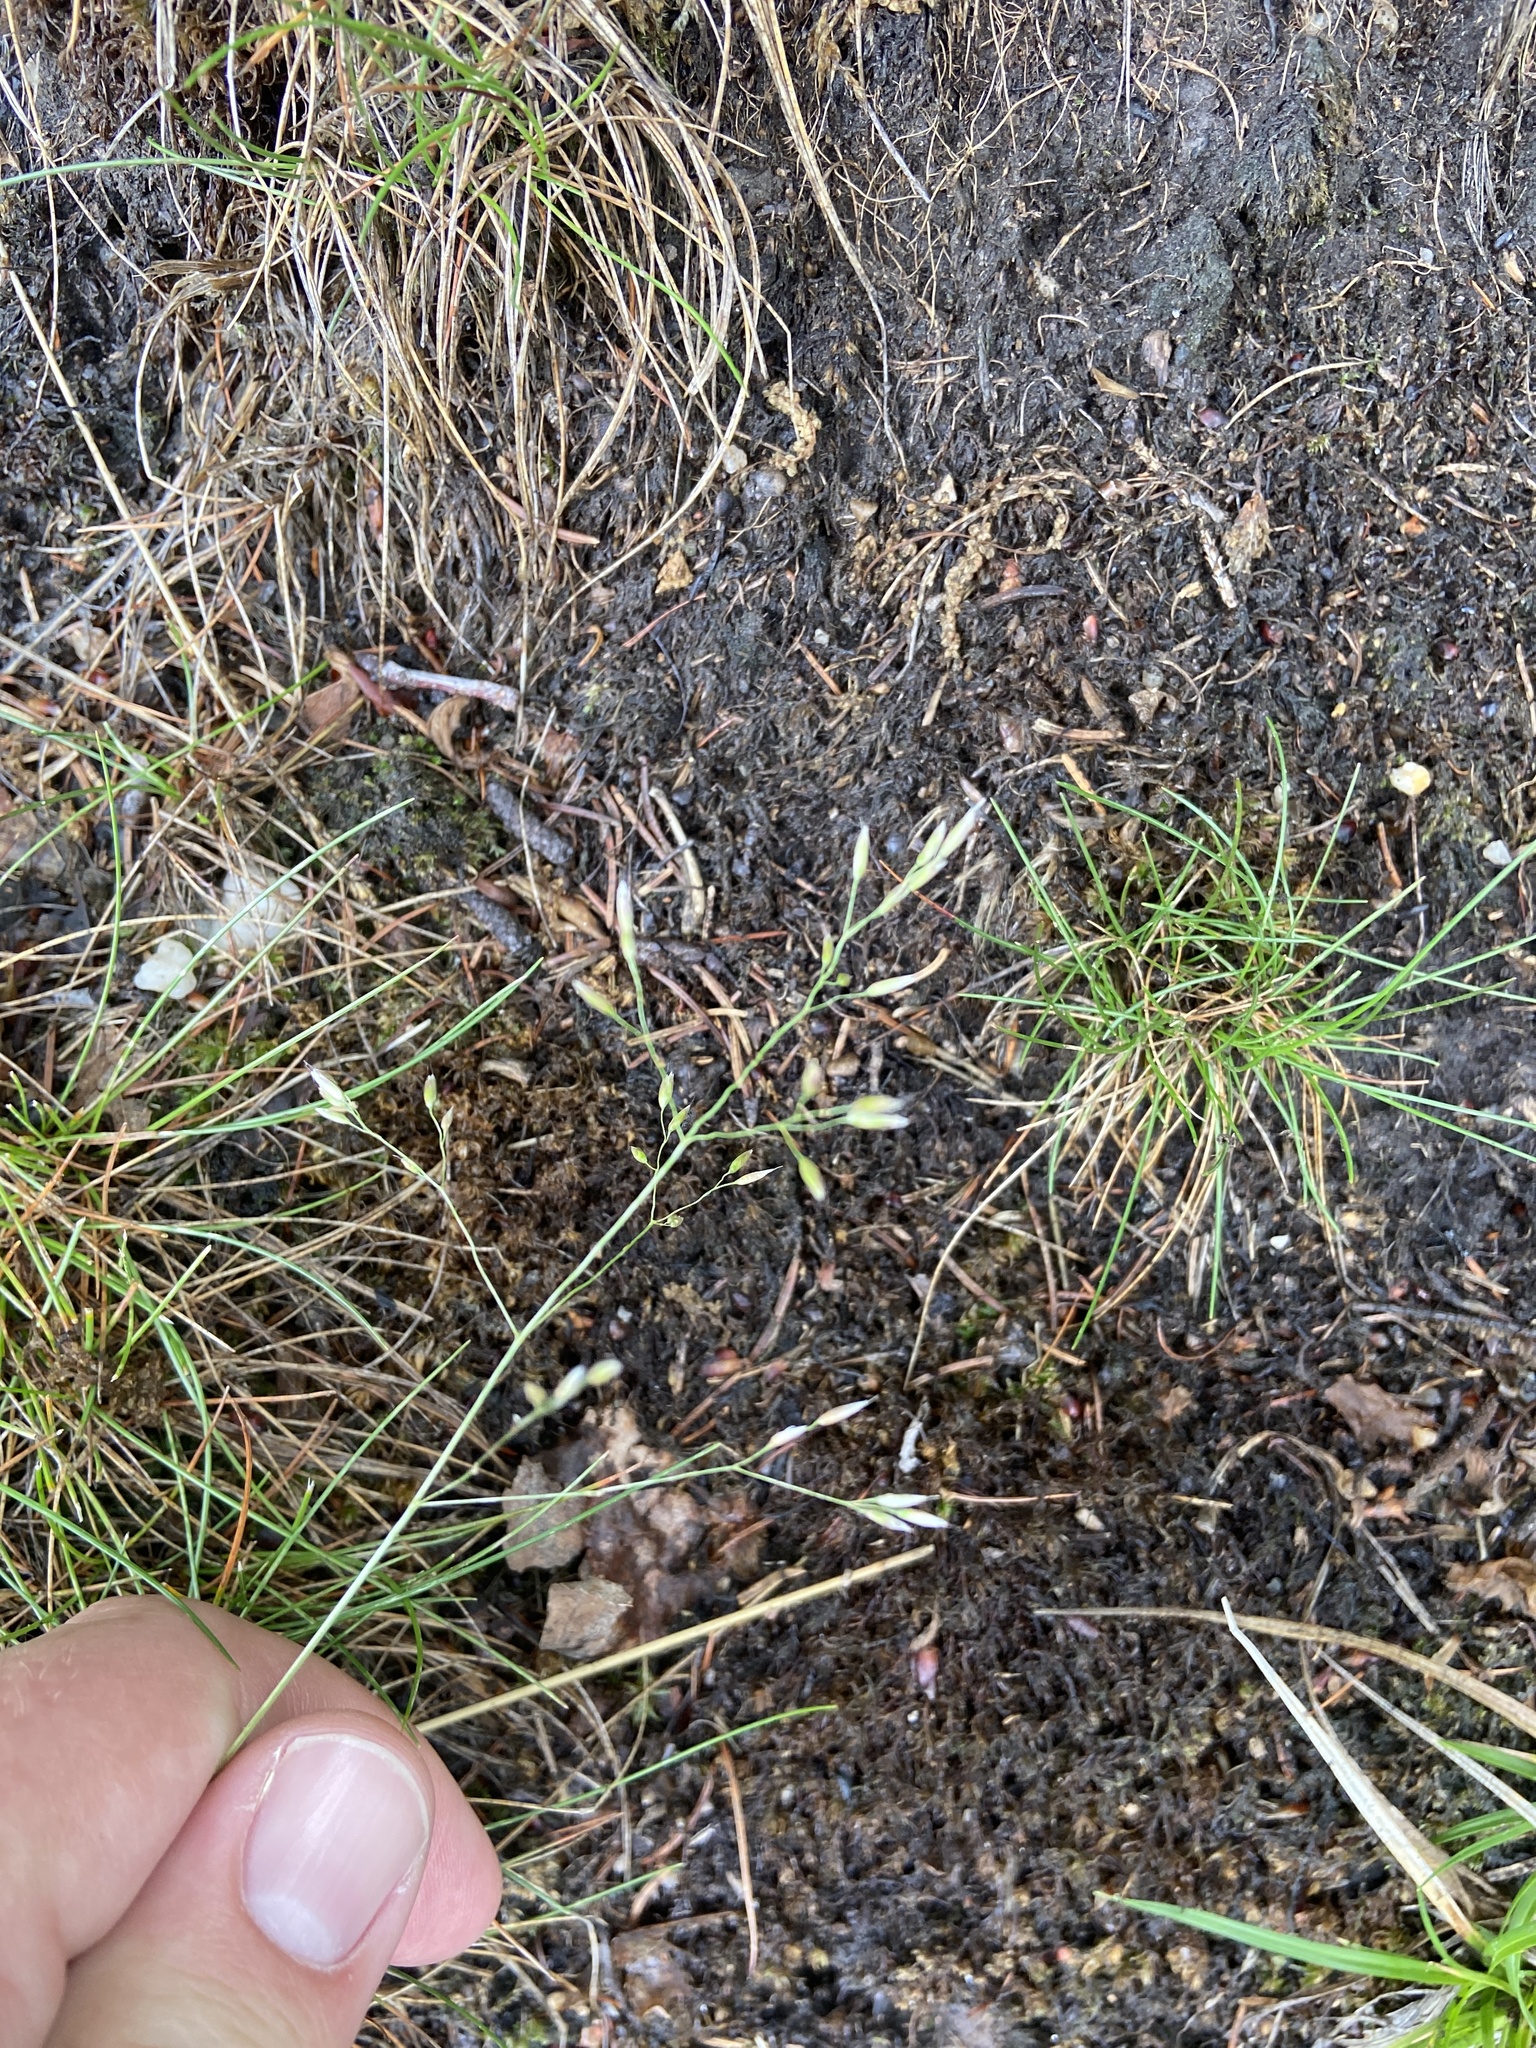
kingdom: Plantae
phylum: Tracheophyta
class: Liliopsida
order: Poales
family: Poaceae
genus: Avenella
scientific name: Avenella flexuosa
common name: Wavy hairgrass
